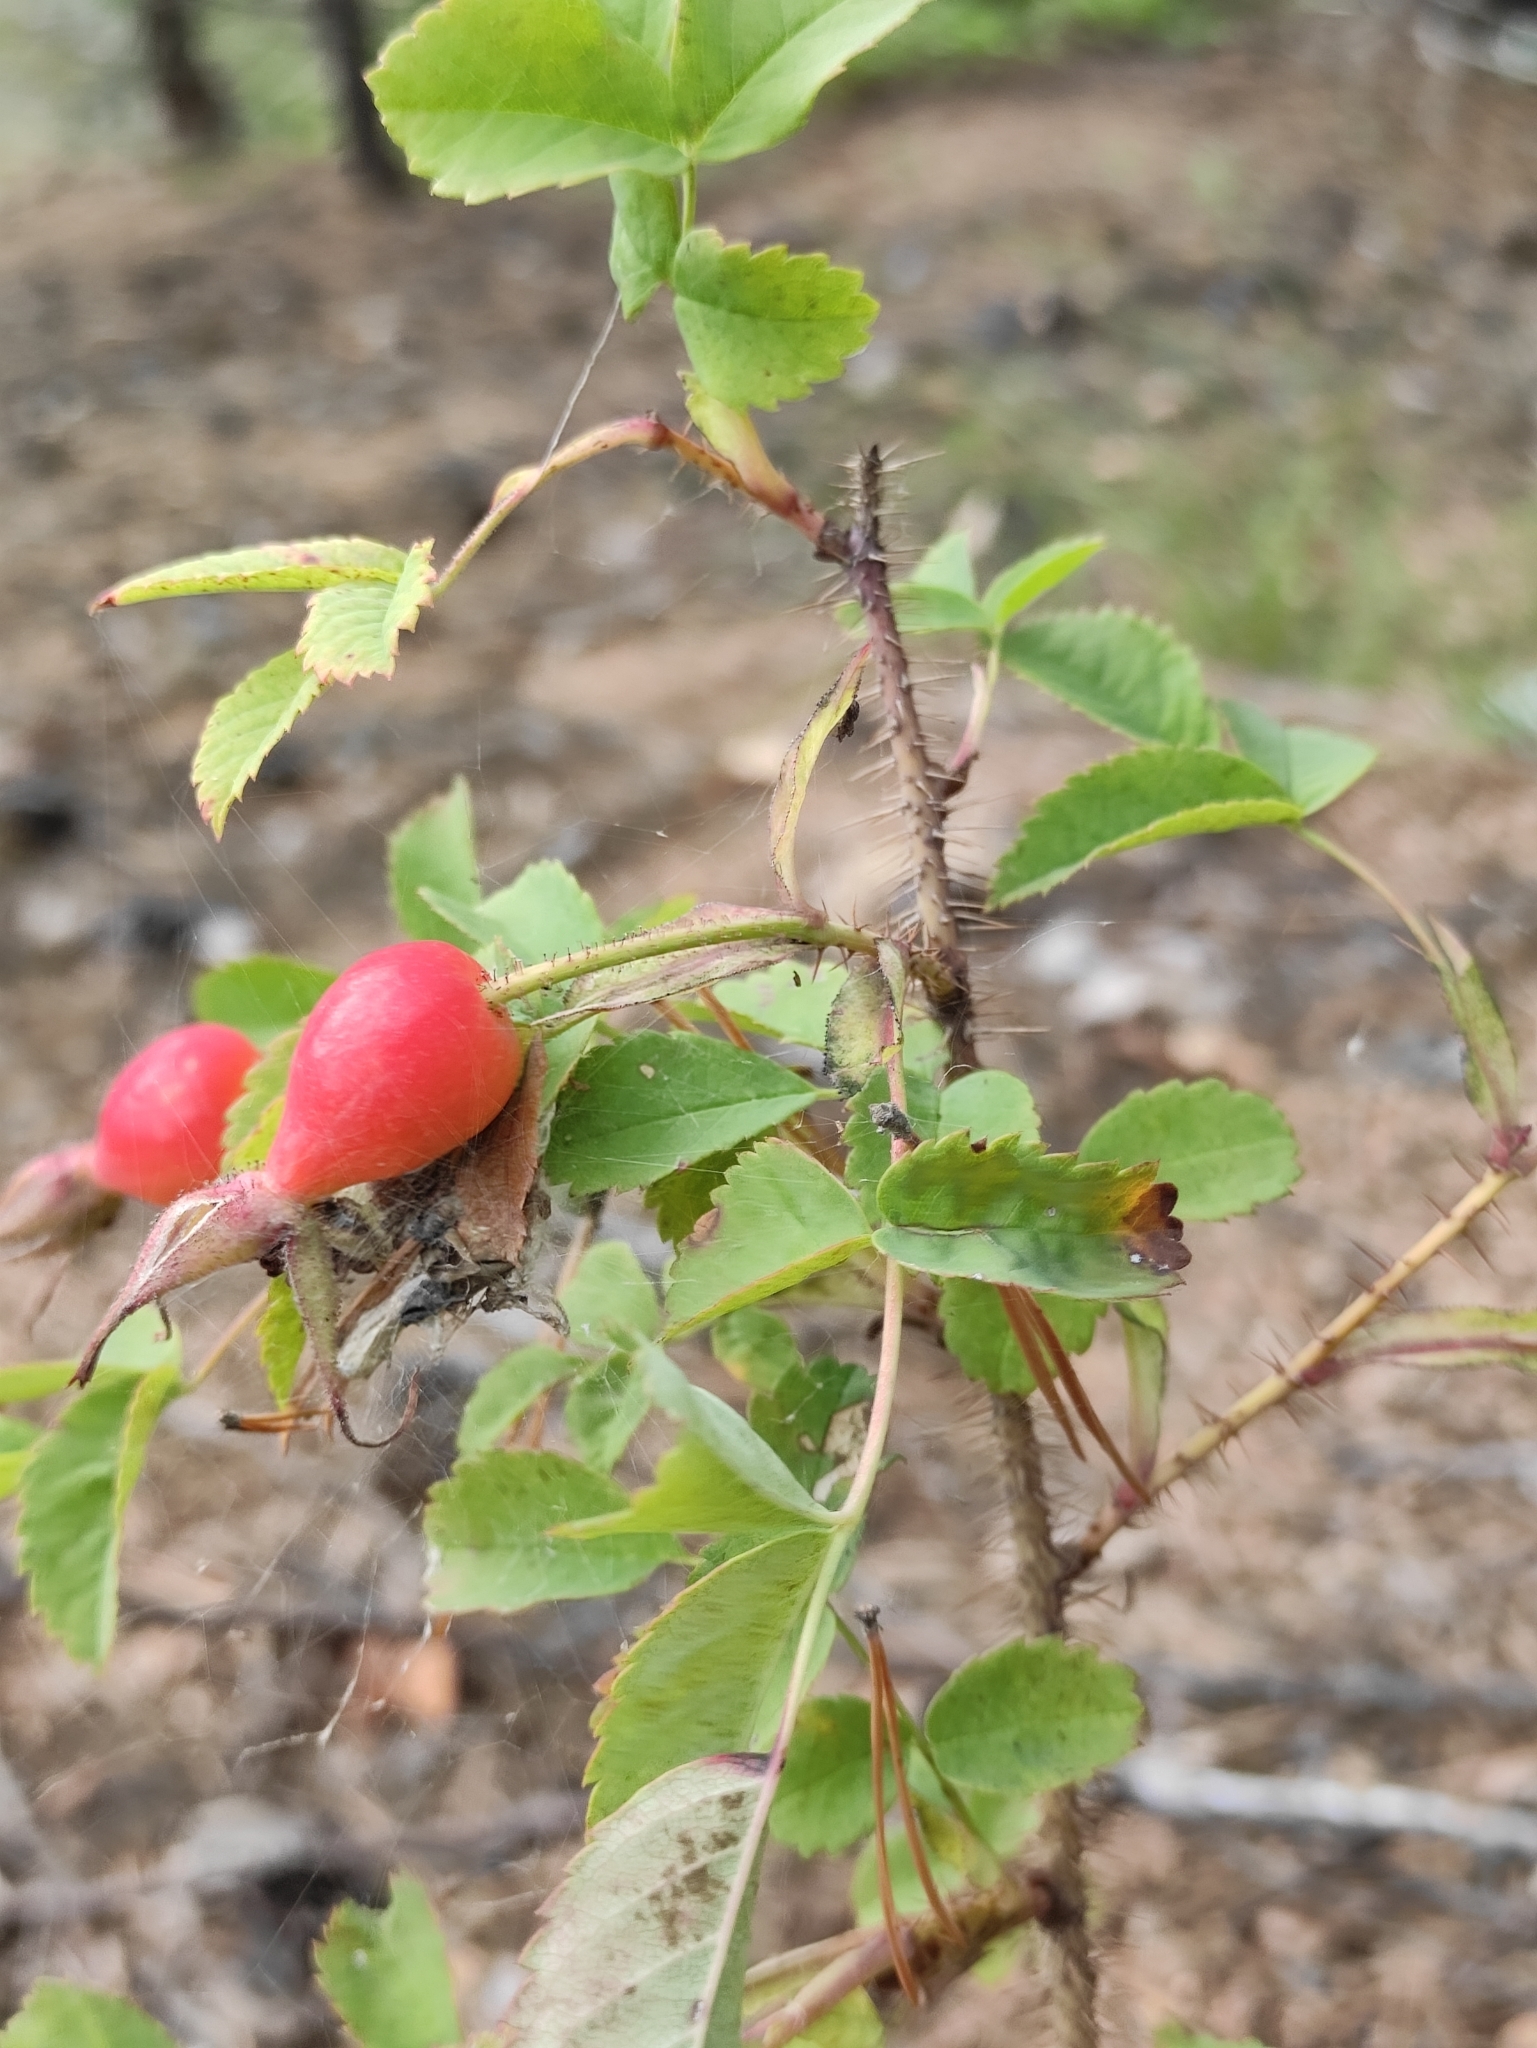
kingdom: Plantae
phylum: Tracheophyta
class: Magnoliopsida
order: Rosales
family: Rosaceae
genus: Rosa
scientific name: Rosa acicularis
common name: Prickly rose
